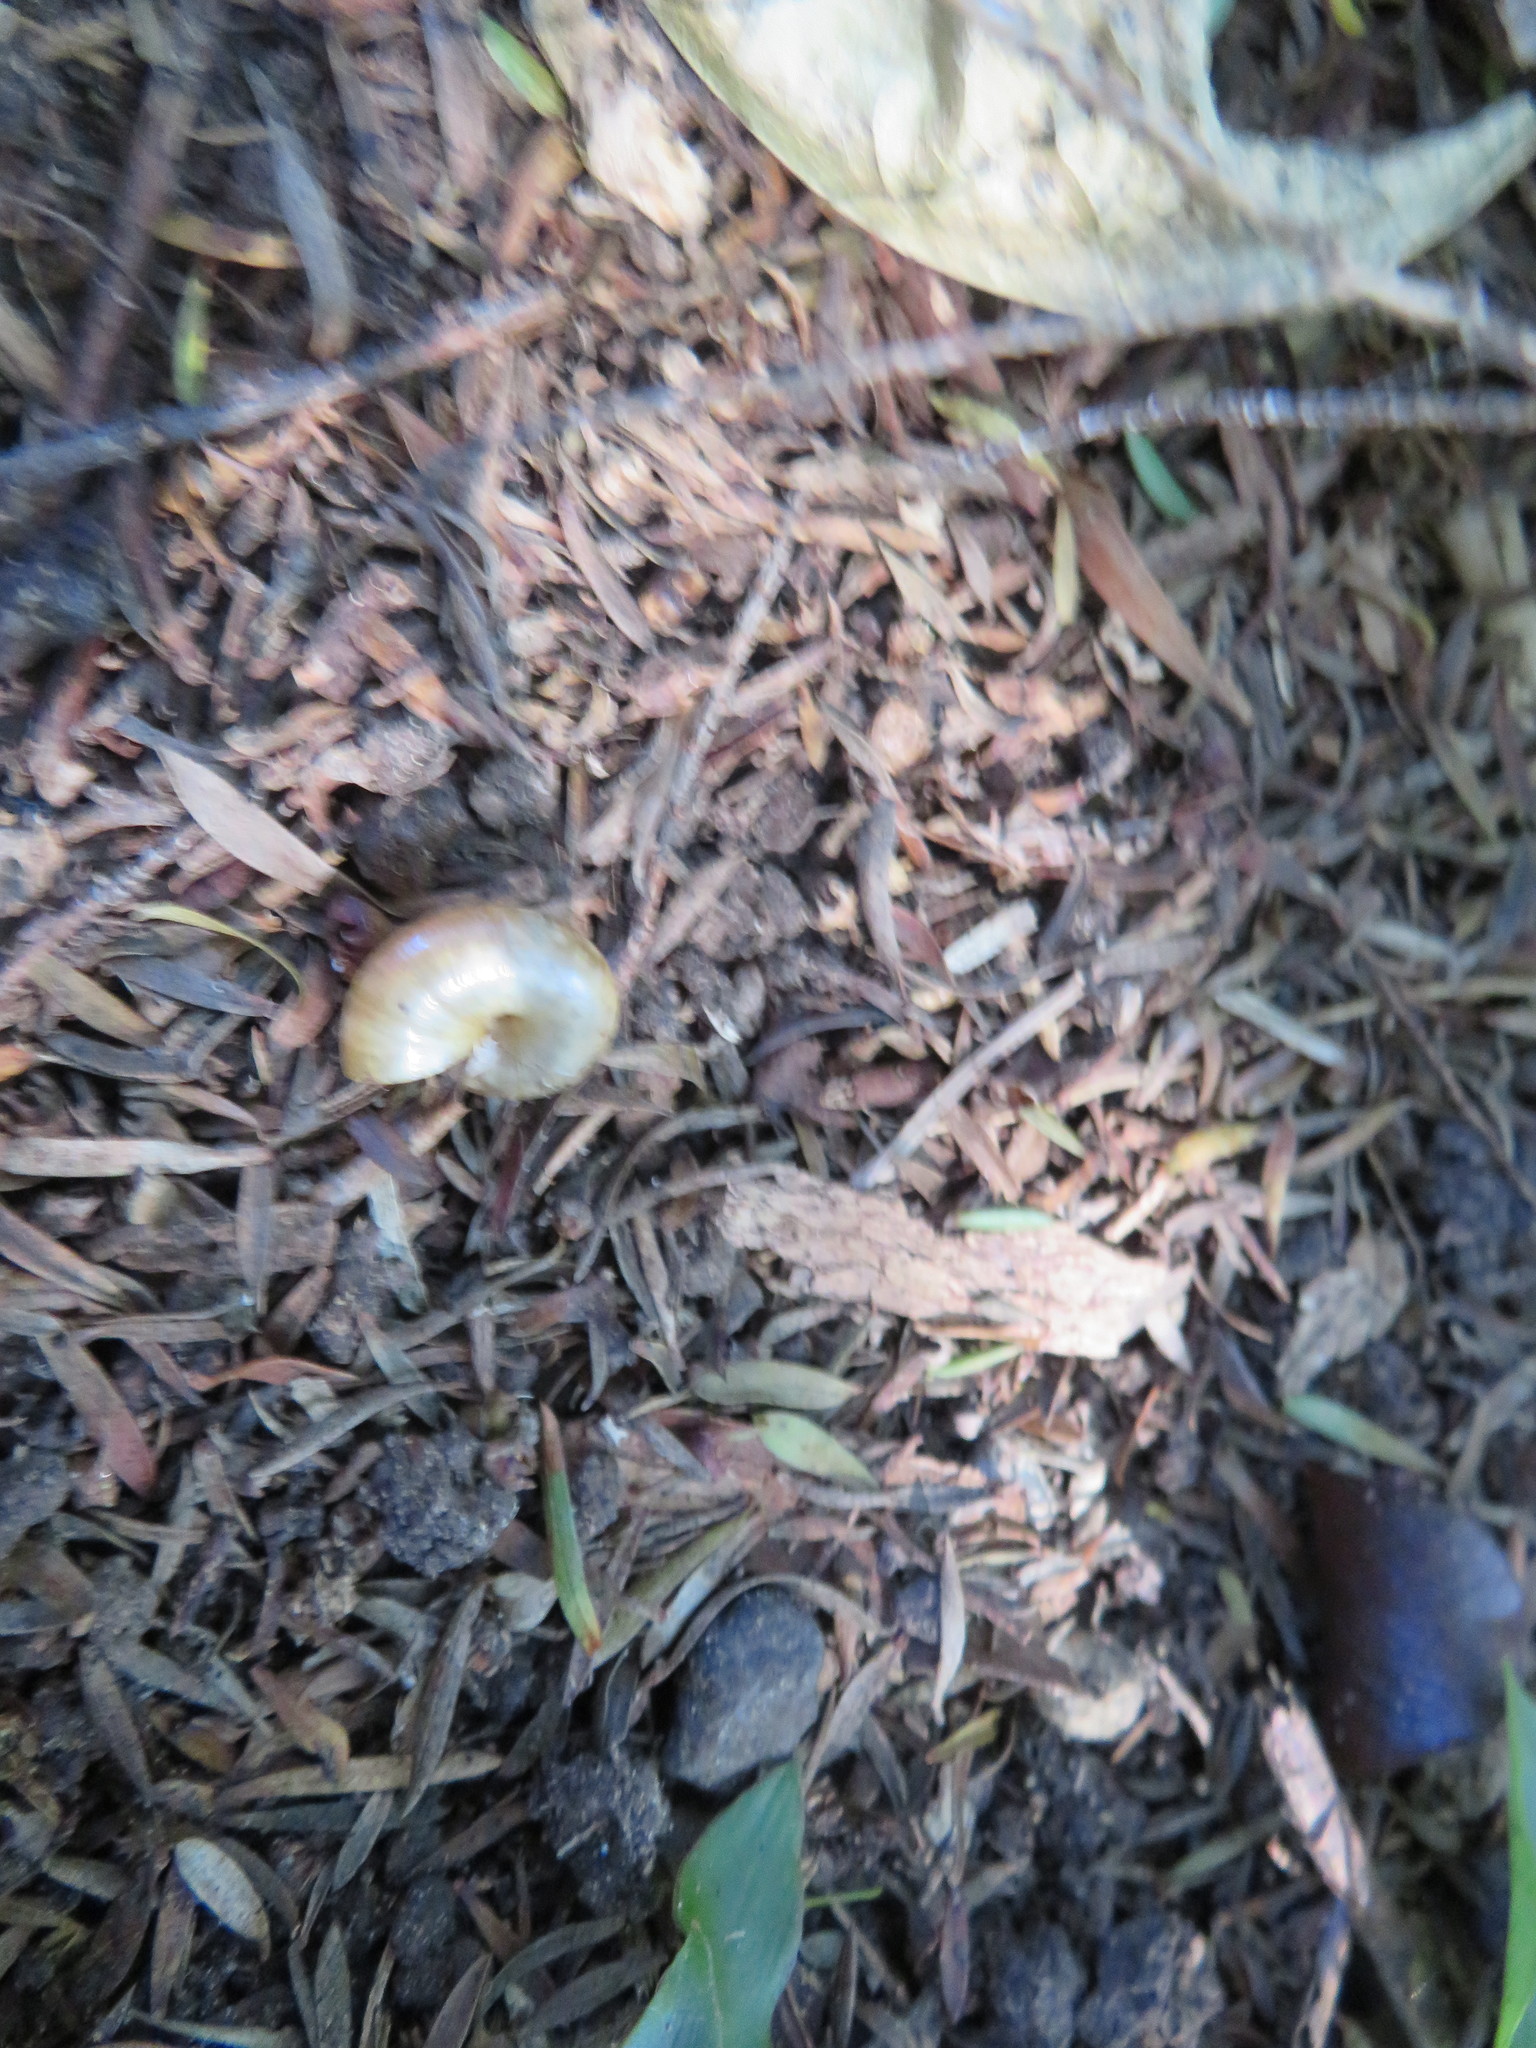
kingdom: Animalia
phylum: Mollusca
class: Gastropoda
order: Stylommatophora
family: Oxychilidae
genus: Oxychilus
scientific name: Oxychilus
